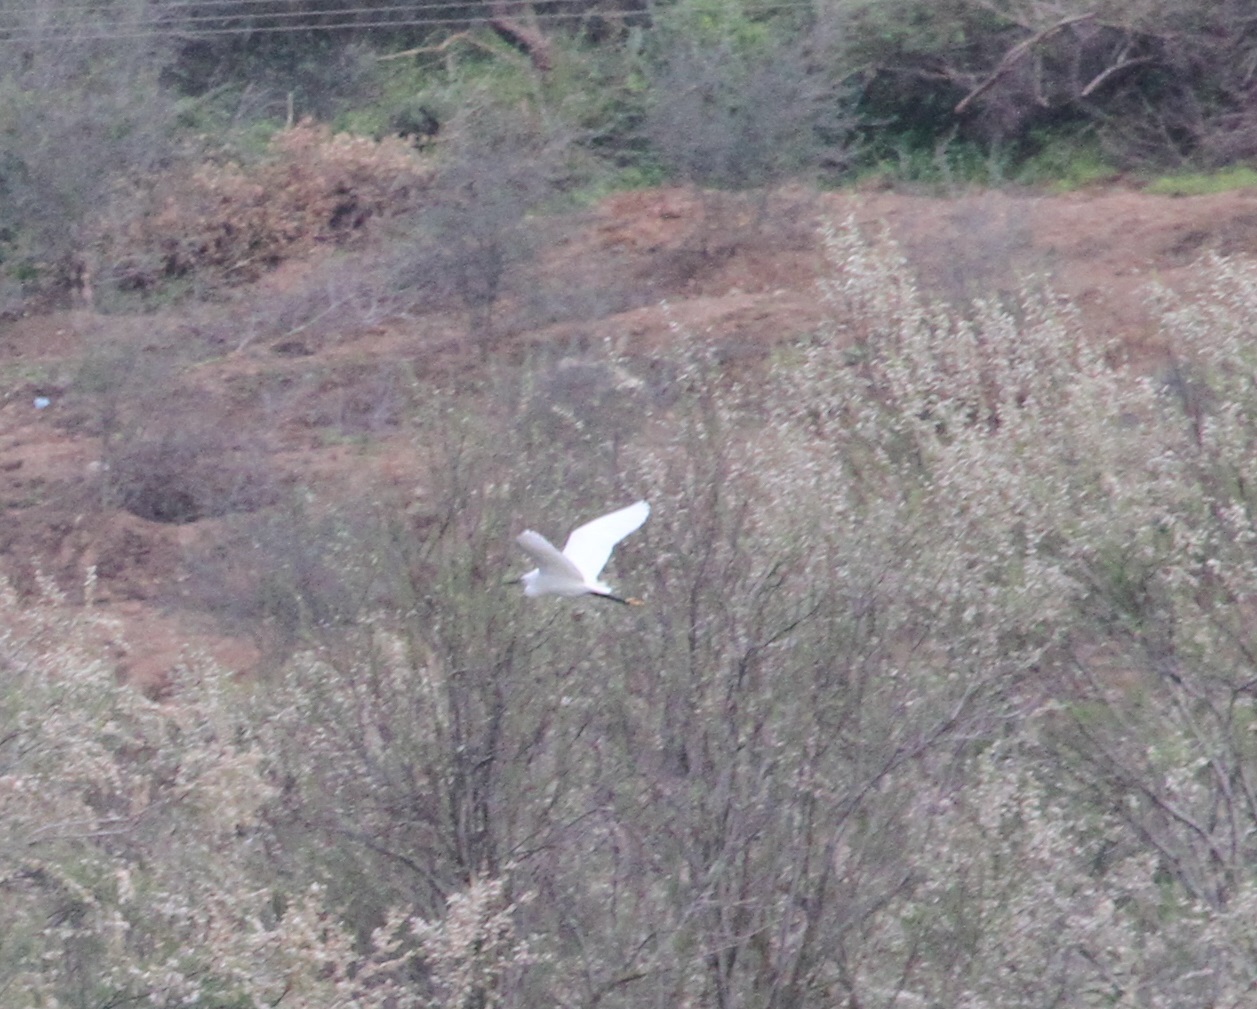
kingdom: Animalia
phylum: Chordata
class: Aves
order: Pelecaniformes
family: Ardeidae
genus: Egretta
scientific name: Egretta garzetta
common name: Little egret
